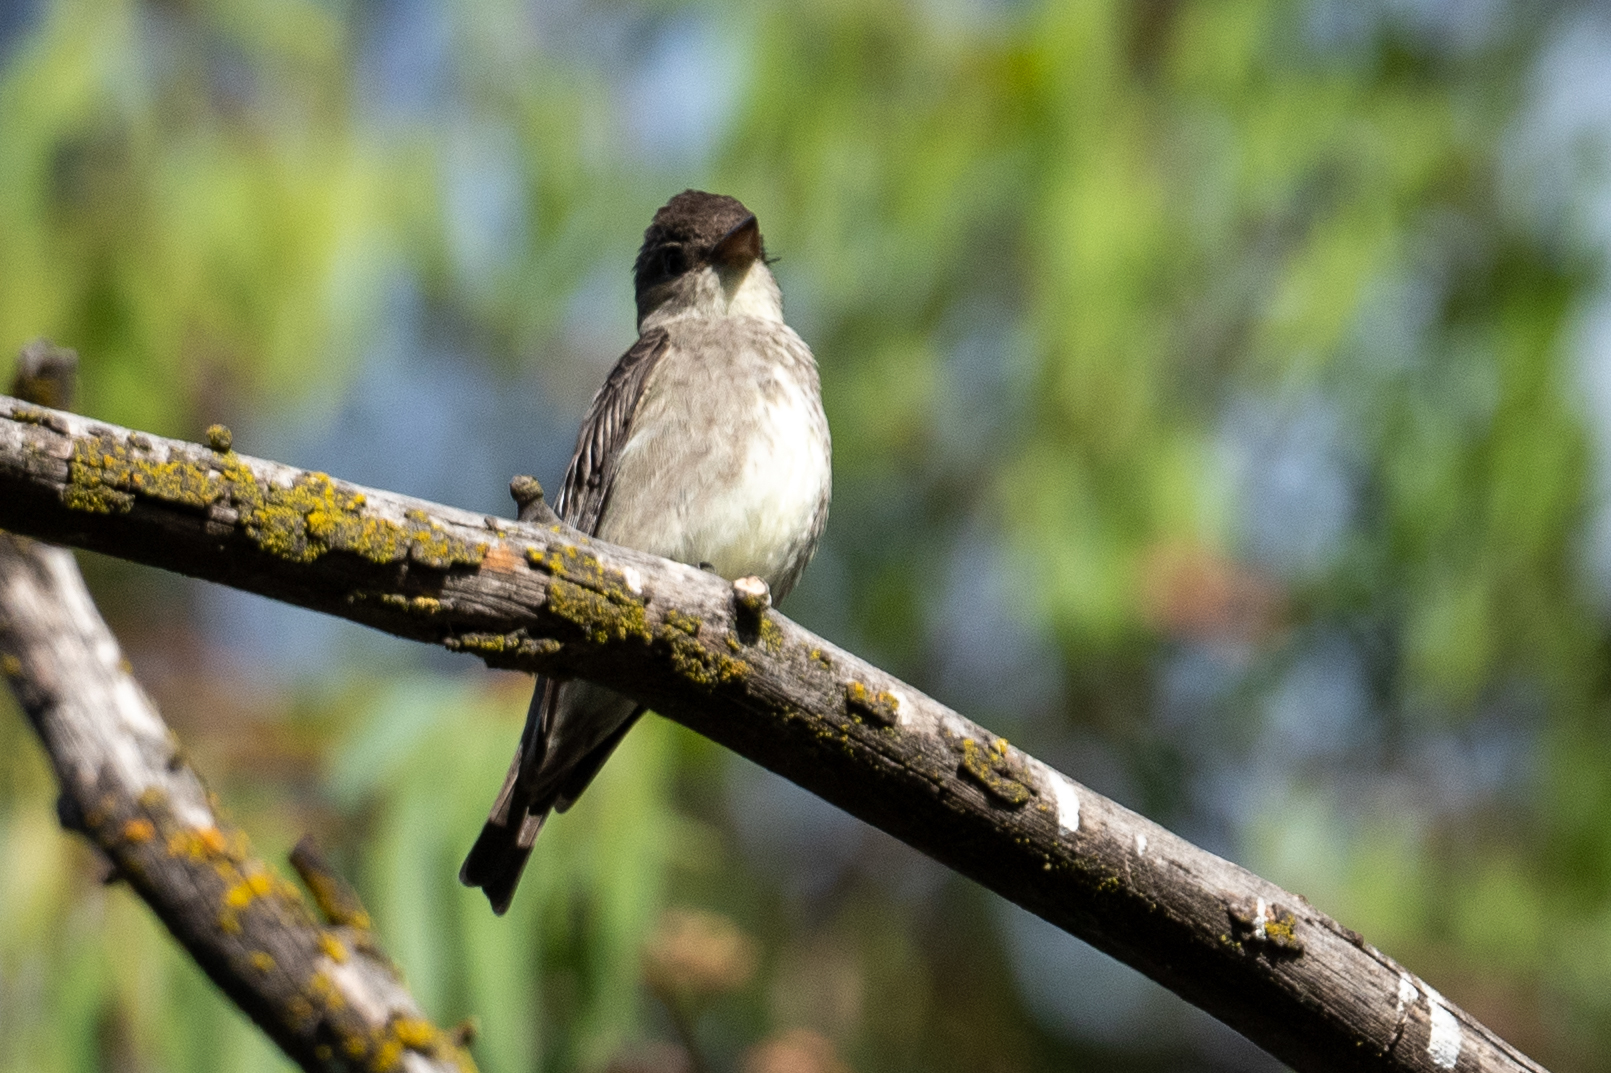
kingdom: Animalia
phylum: Chordata
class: Aves
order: Passeriformes
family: Tyrannidae
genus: Contopus
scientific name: Contopus cooperi
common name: Olive-sided flycatcher
